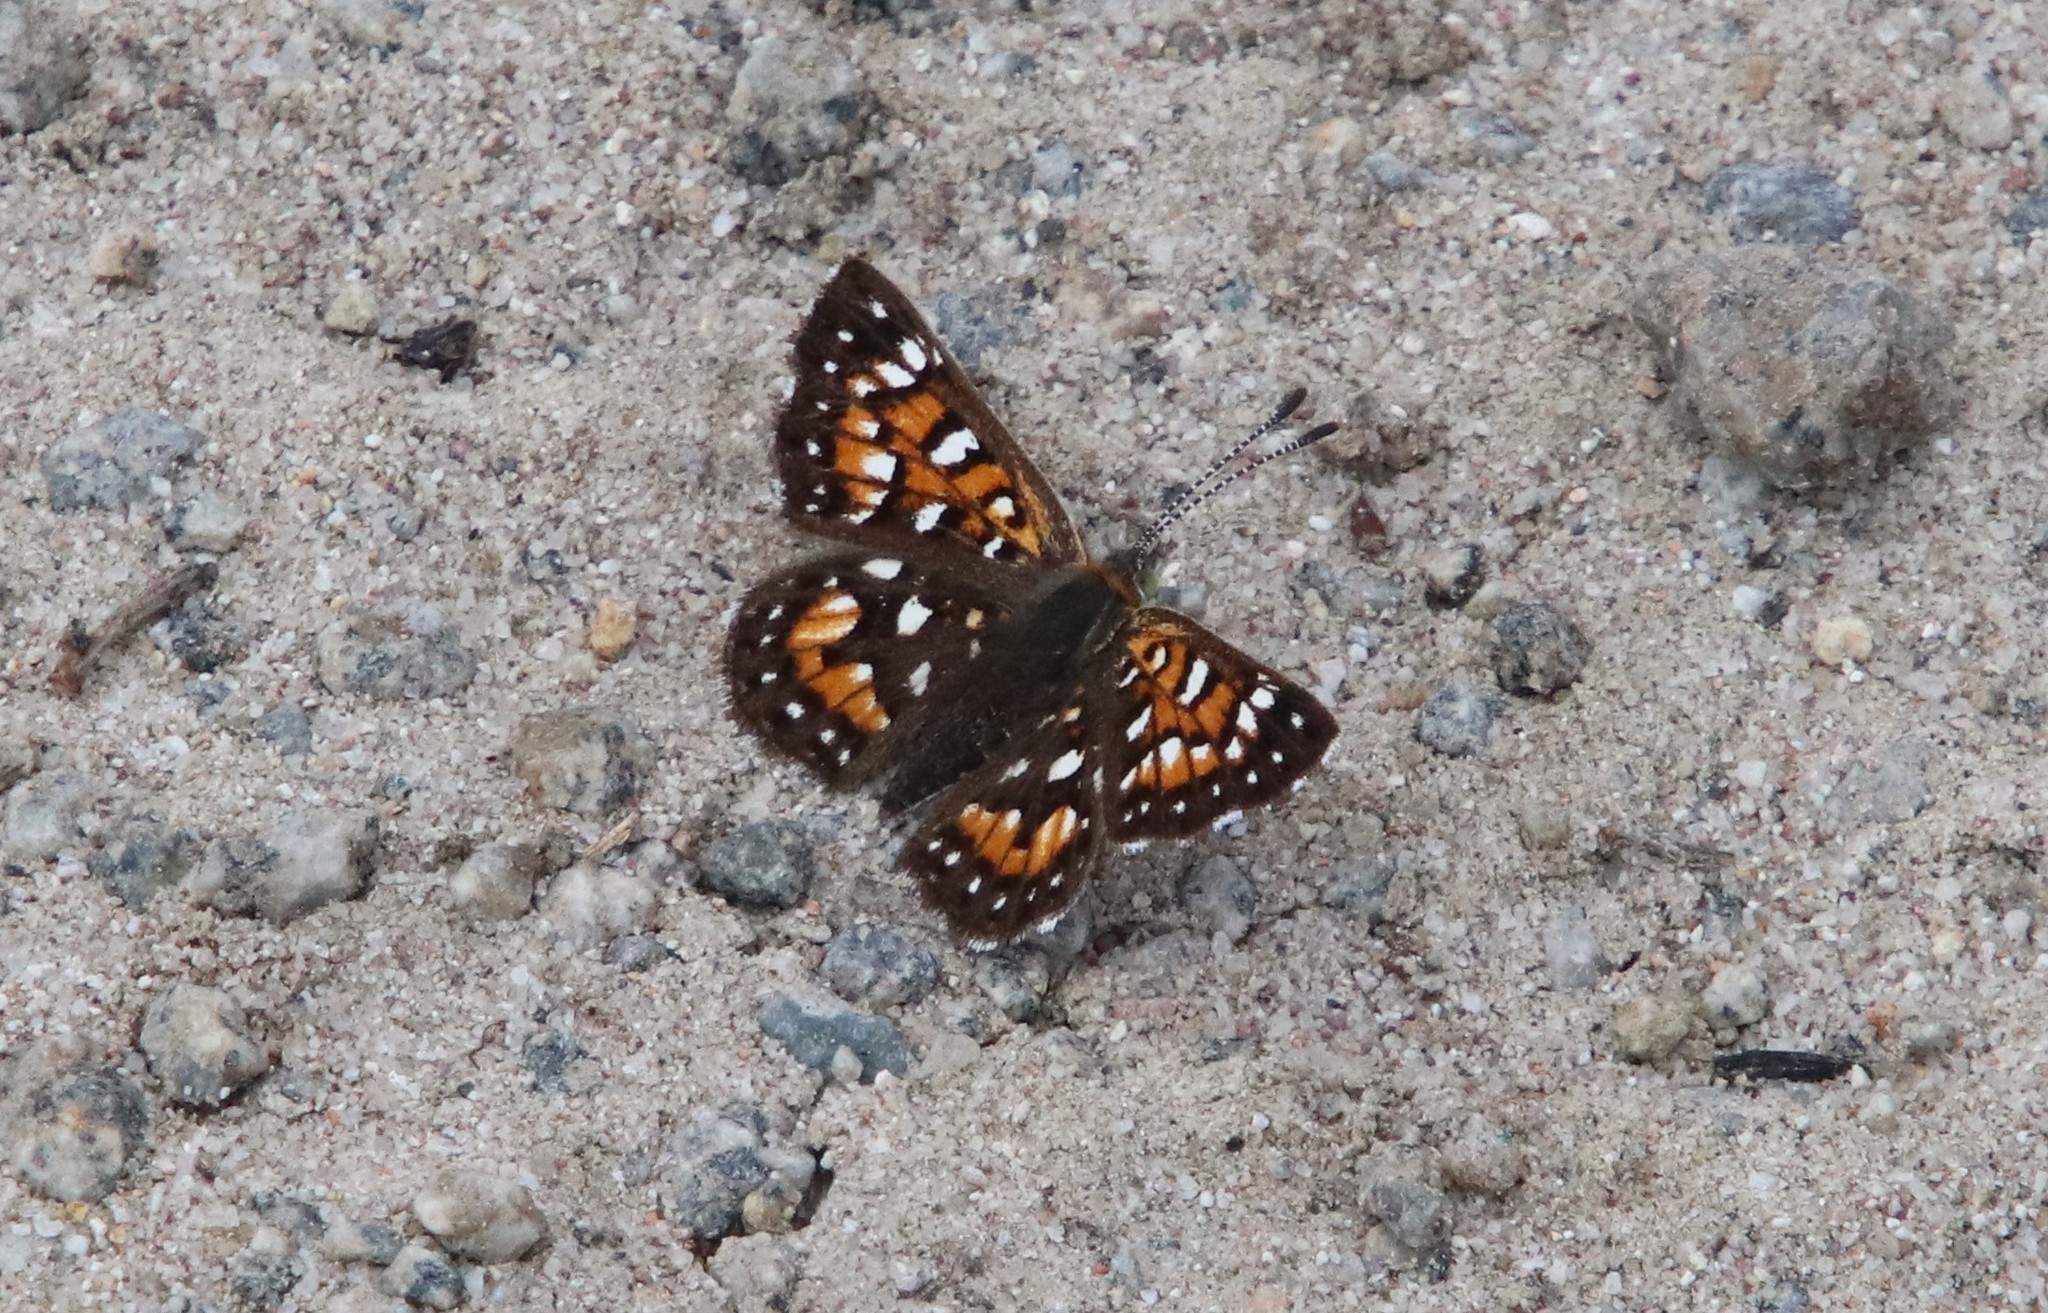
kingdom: Animalia
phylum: Arthropoda
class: Insecta
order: Lepidoptera
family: Riodinidae
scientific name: Riodinidae
